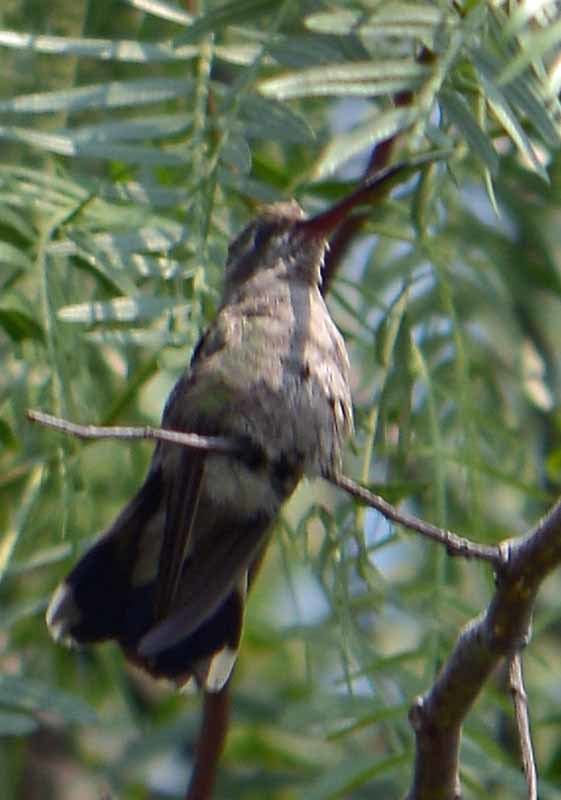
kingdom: Animalia
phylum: Chordata
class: Aves
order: Apodiformes
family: Trochilidae
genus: Cynanthus
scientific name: Cynanthus latirostris
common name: Broad-billed hummingbird
